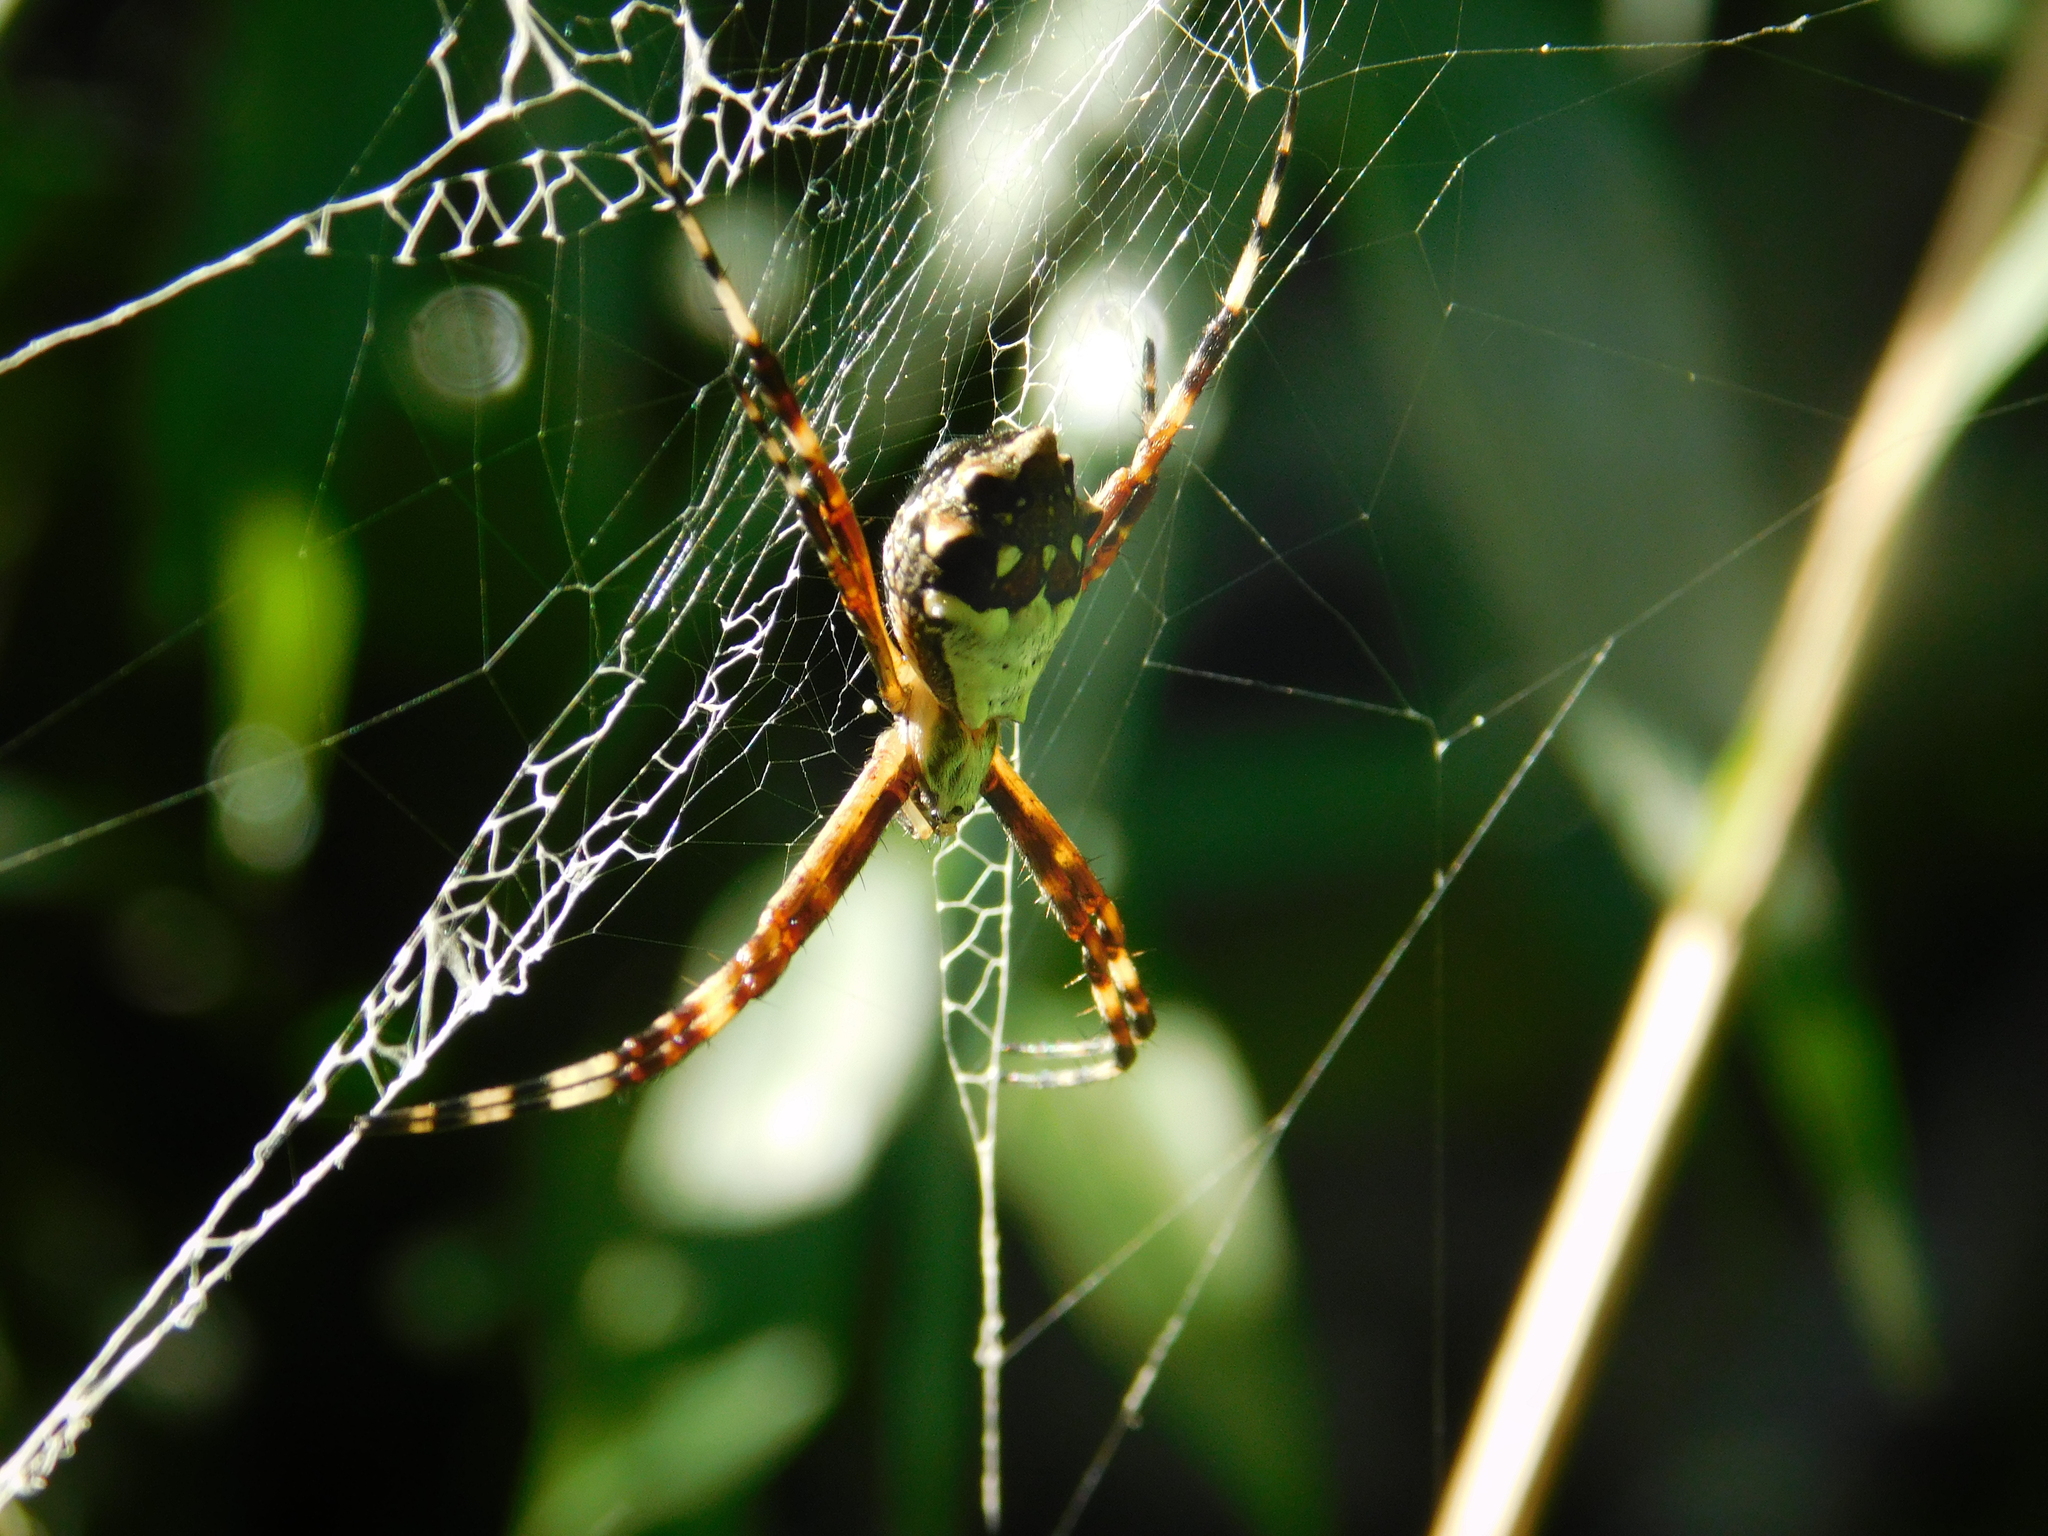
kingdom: Animalia
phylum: Arthropoda
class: Arachnida
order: Araneae
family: Araneidae
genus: Argiope
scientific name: Argiope argentata
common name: Orb weavers
